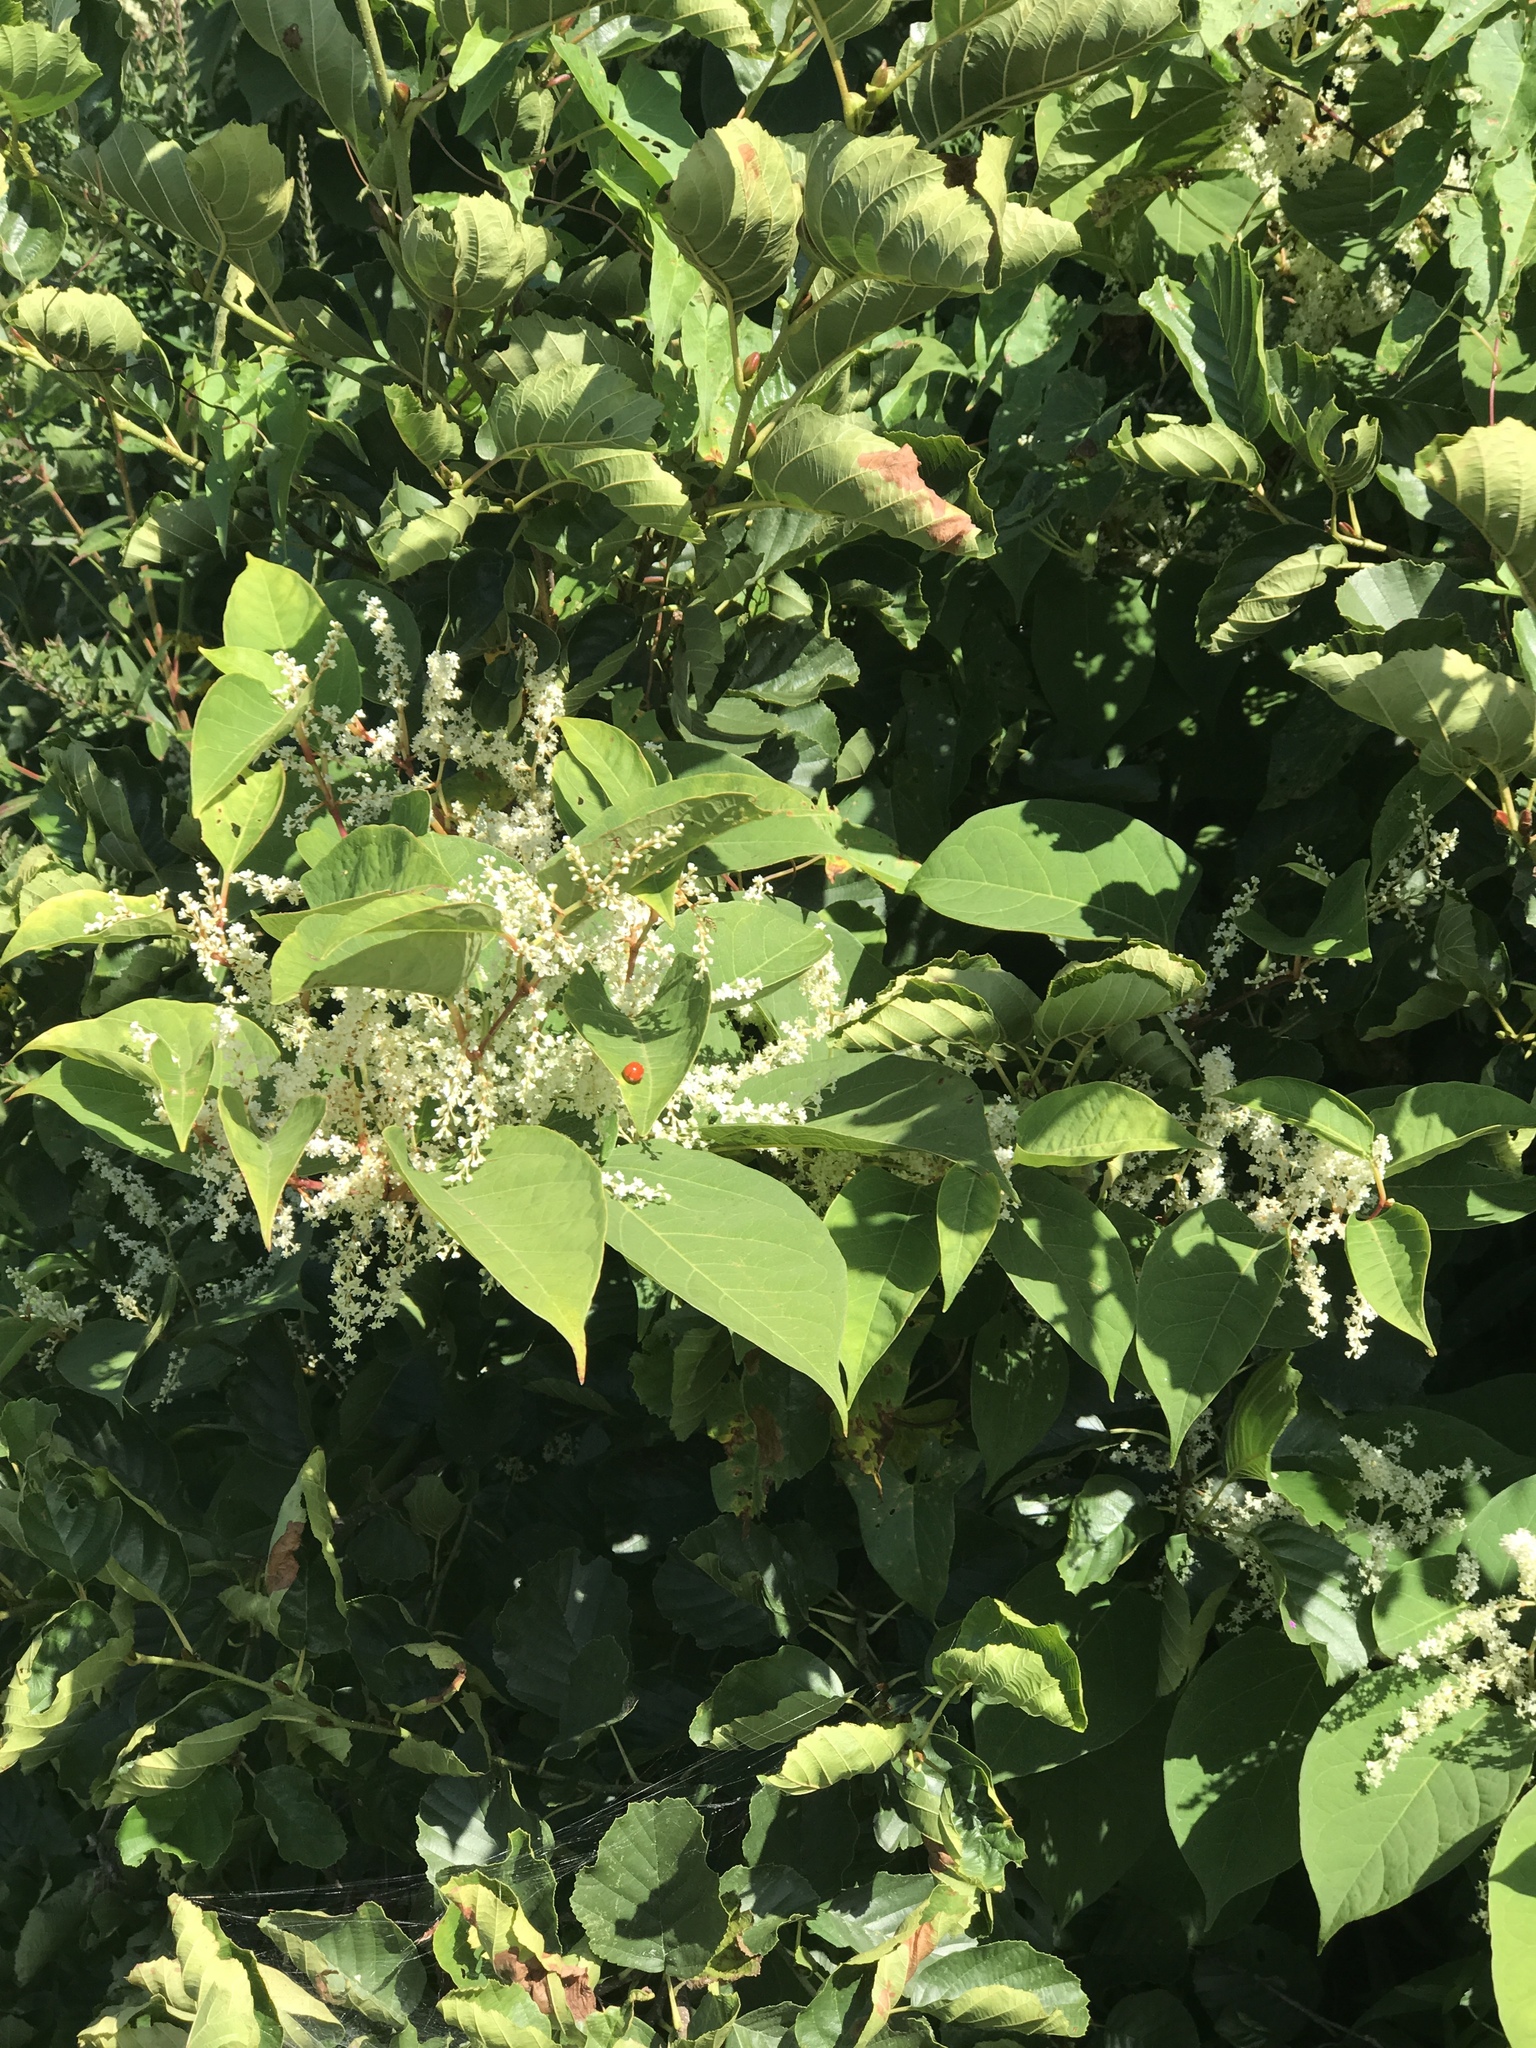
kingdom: Plantae
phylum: Tracheophyta
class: Magnoliopsida
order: Caryophyllales
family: Polygonaceae
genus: Reynoutria
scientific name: Reynoutria japonica
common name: Japanese knotweed
